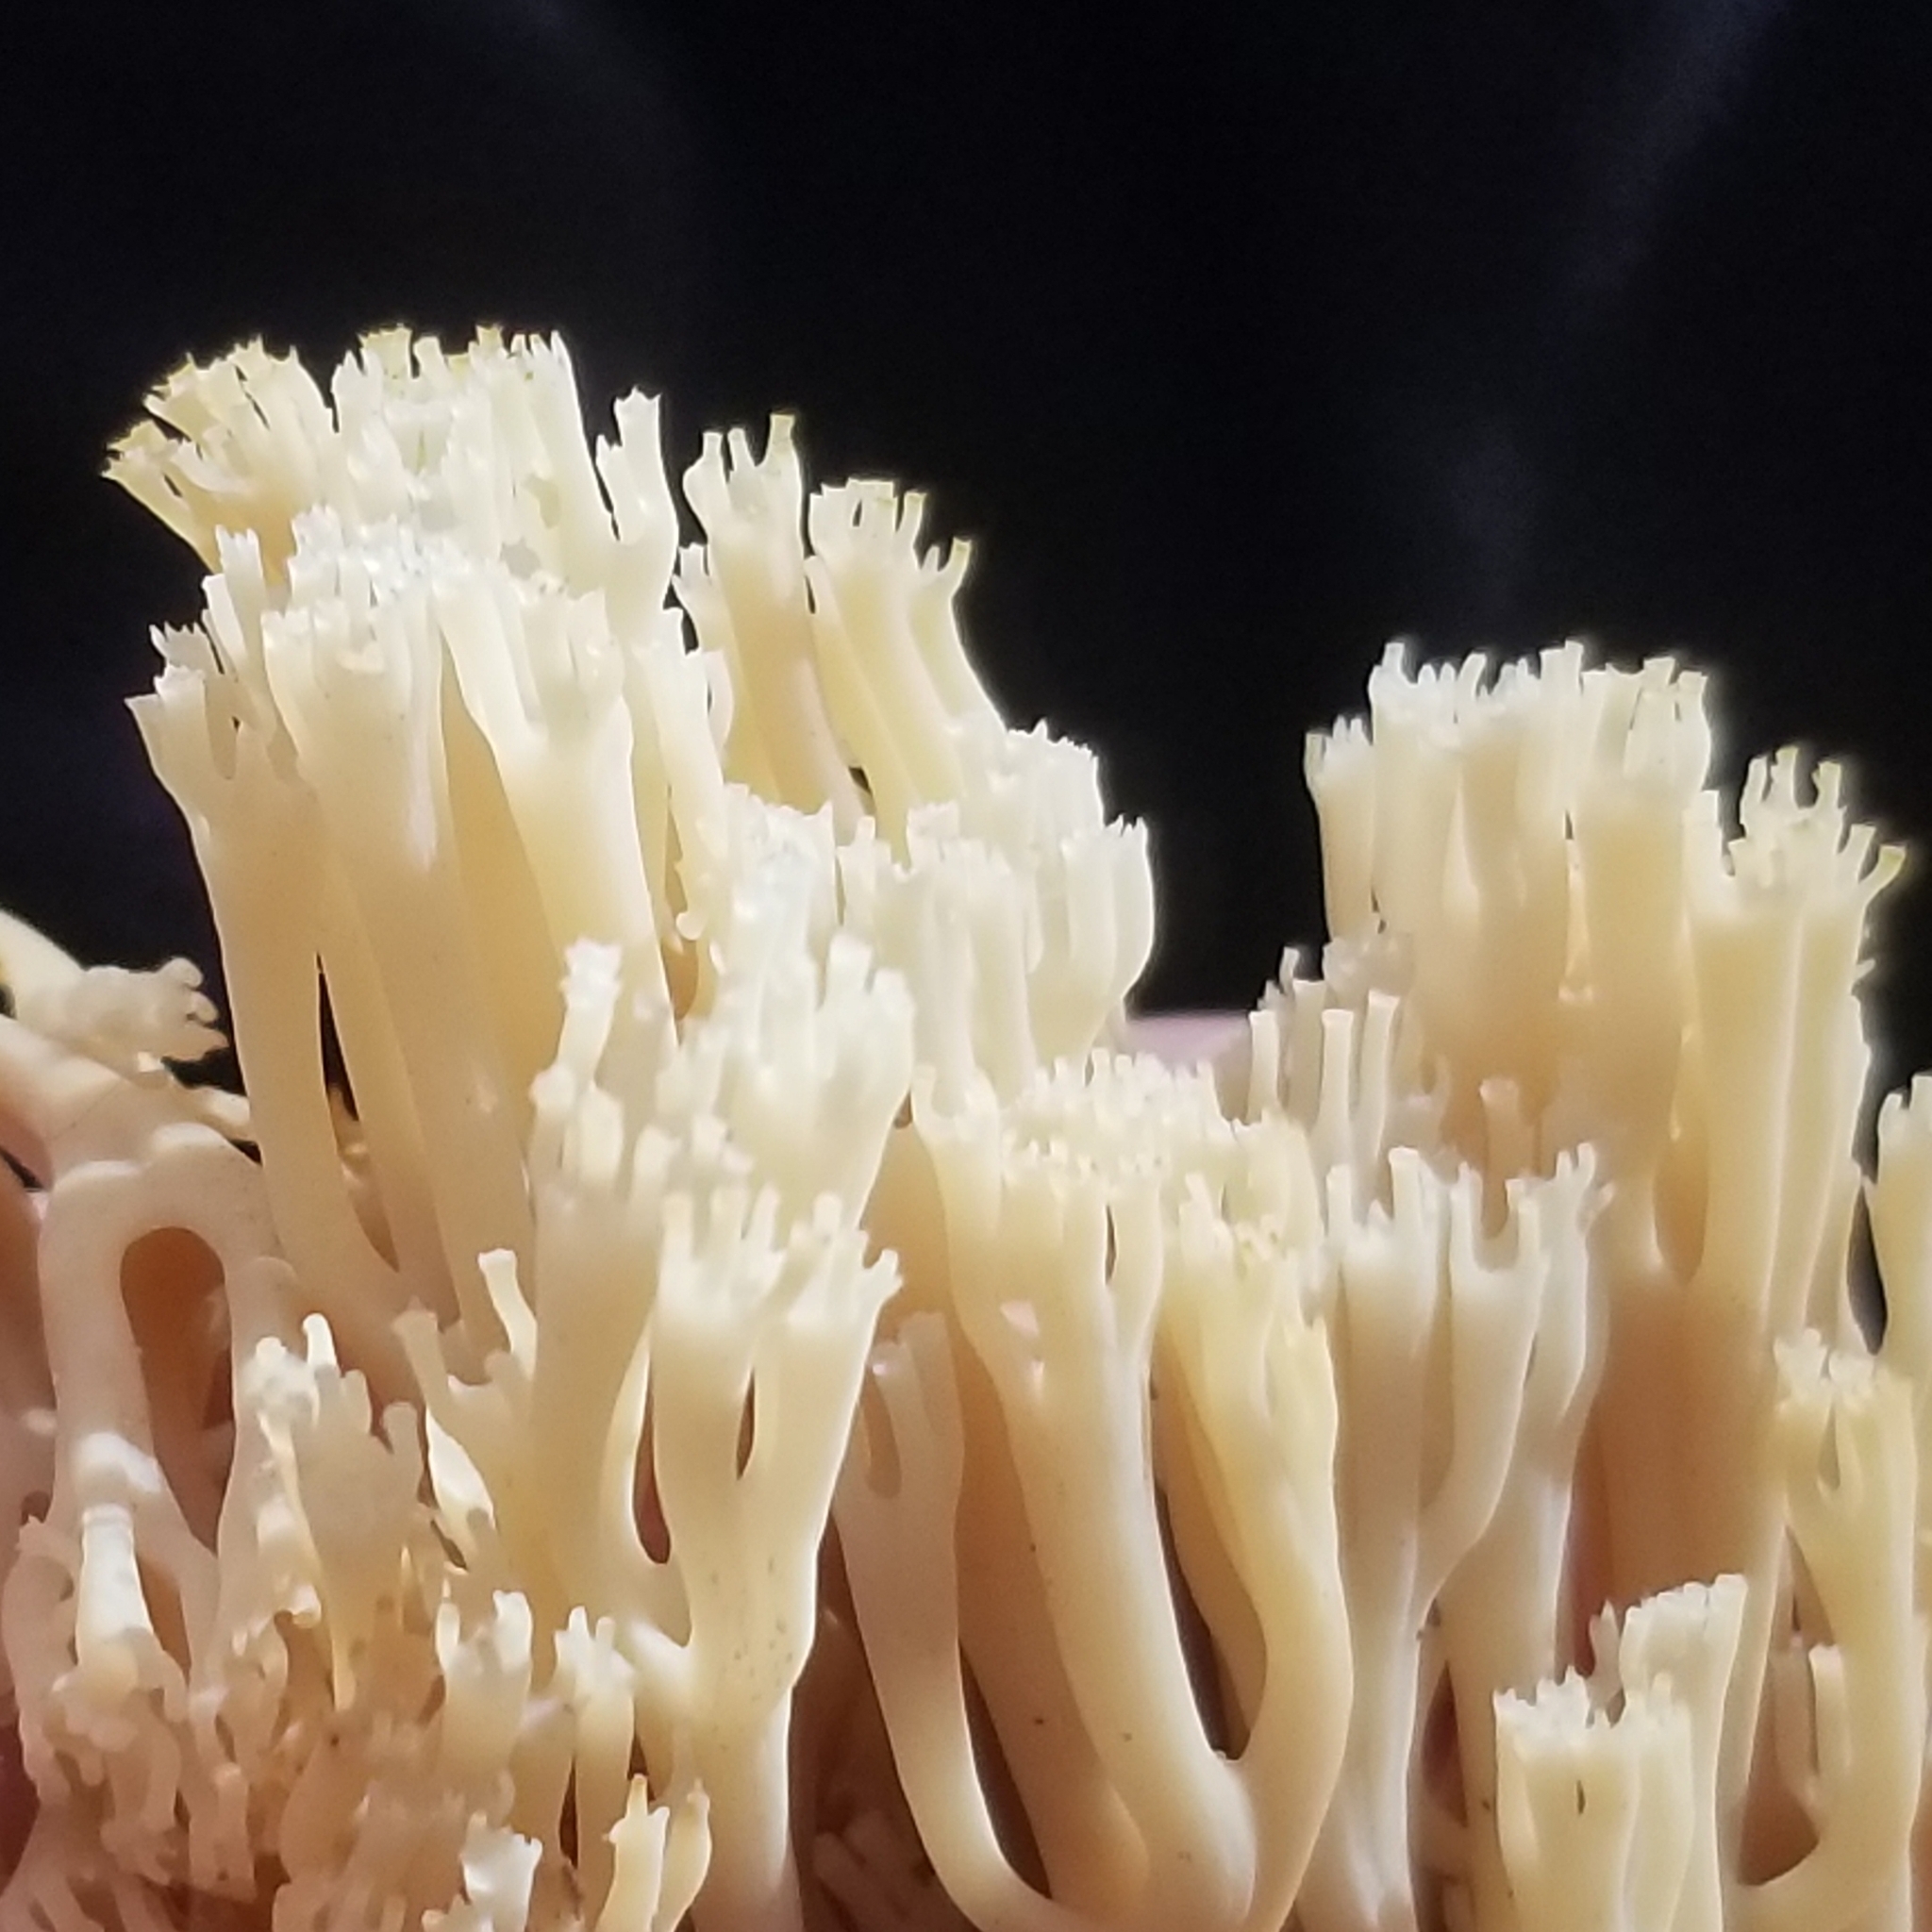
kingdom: Fungi
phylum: Basidiomycota
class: Agaricomycetes
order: Russulales
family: Auriscalpiaceae
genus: Artomyces
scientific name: Artomyces pyxidatus
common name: Crown-tipped coral fungus
